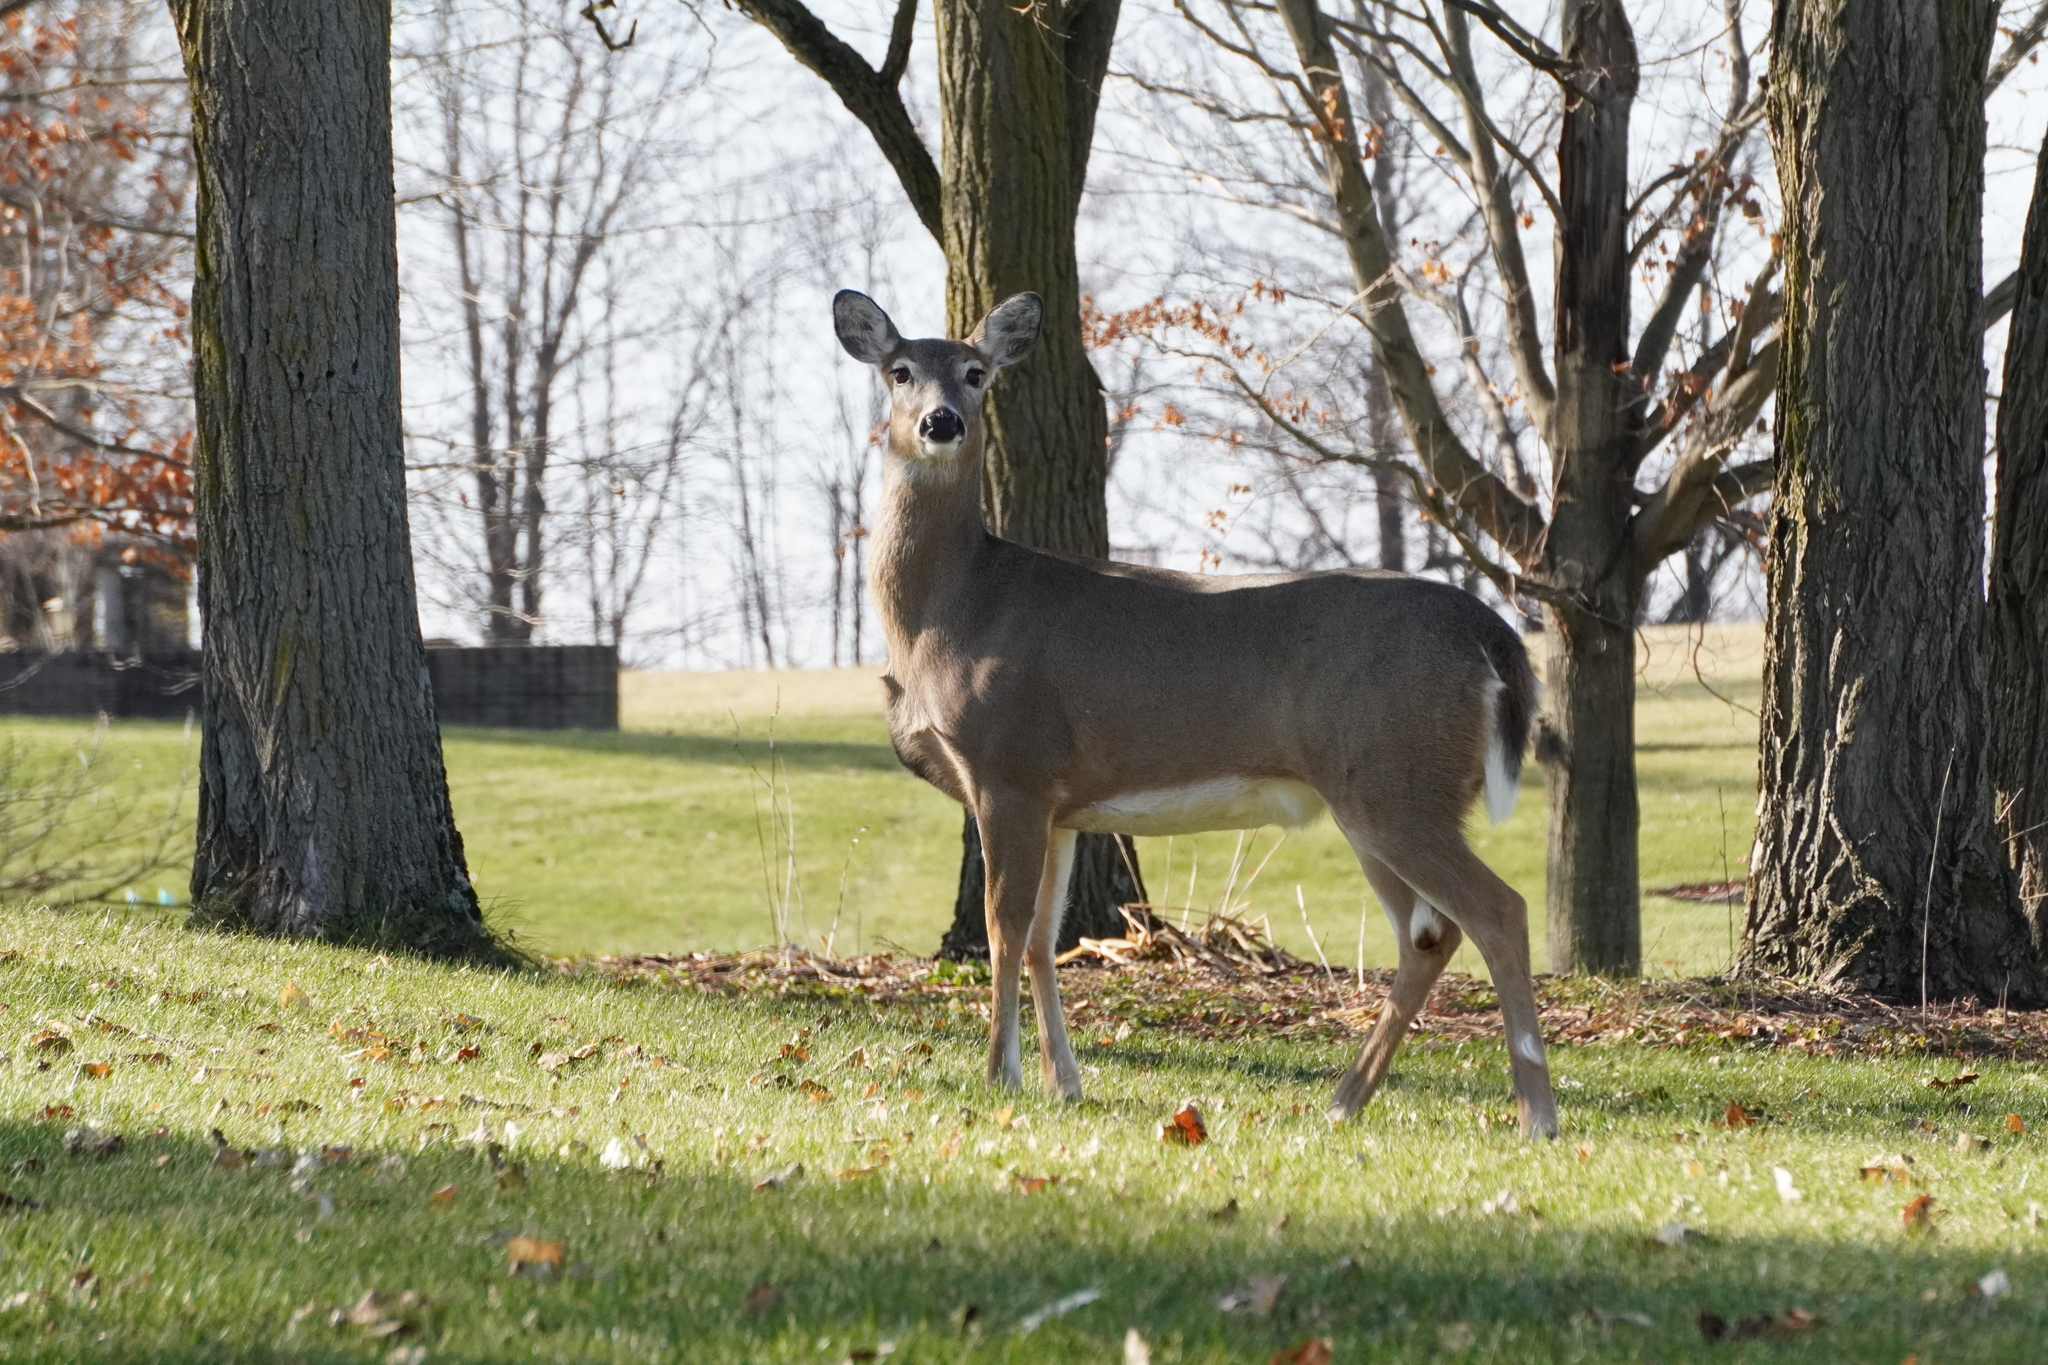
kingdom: Animalia
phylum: Chordata
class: Mammalia
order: Artiodactyla
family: Cervidae
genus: Odocoileus
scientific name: Odocoileus virginianus
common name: White-tailed deer
